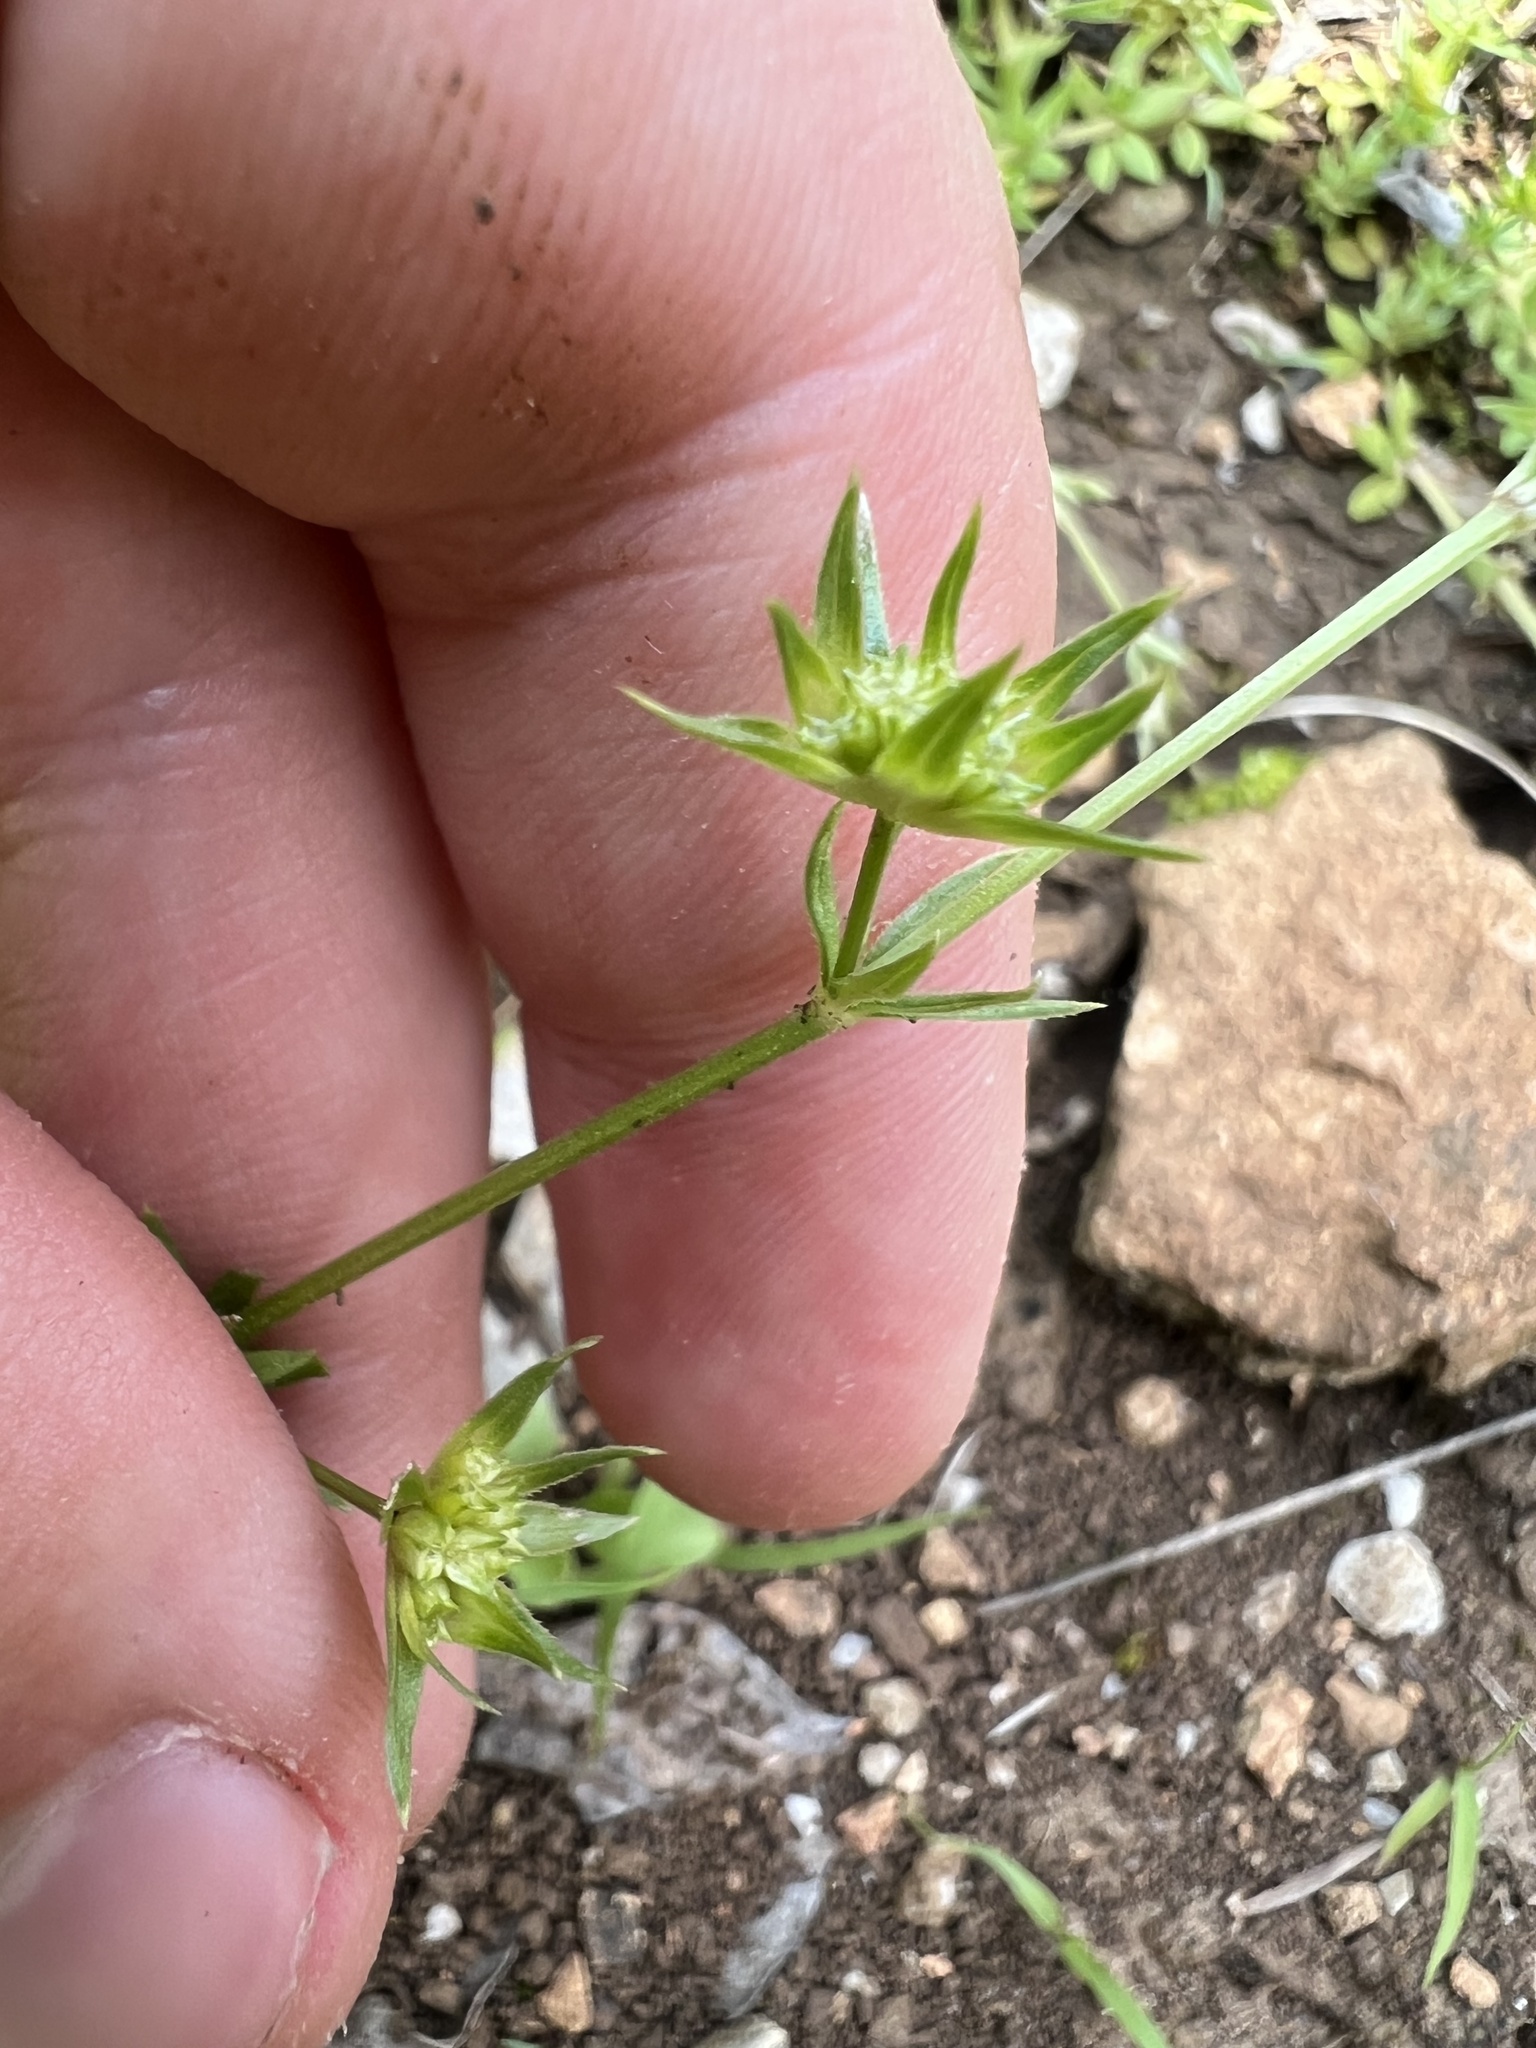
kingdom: Plantae
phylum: Tracheophyta
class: Magnoliopsida
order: Gentianales
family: Rubiaceae
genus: Sherardia
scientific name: Sherardia arvensis
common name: Field madder
